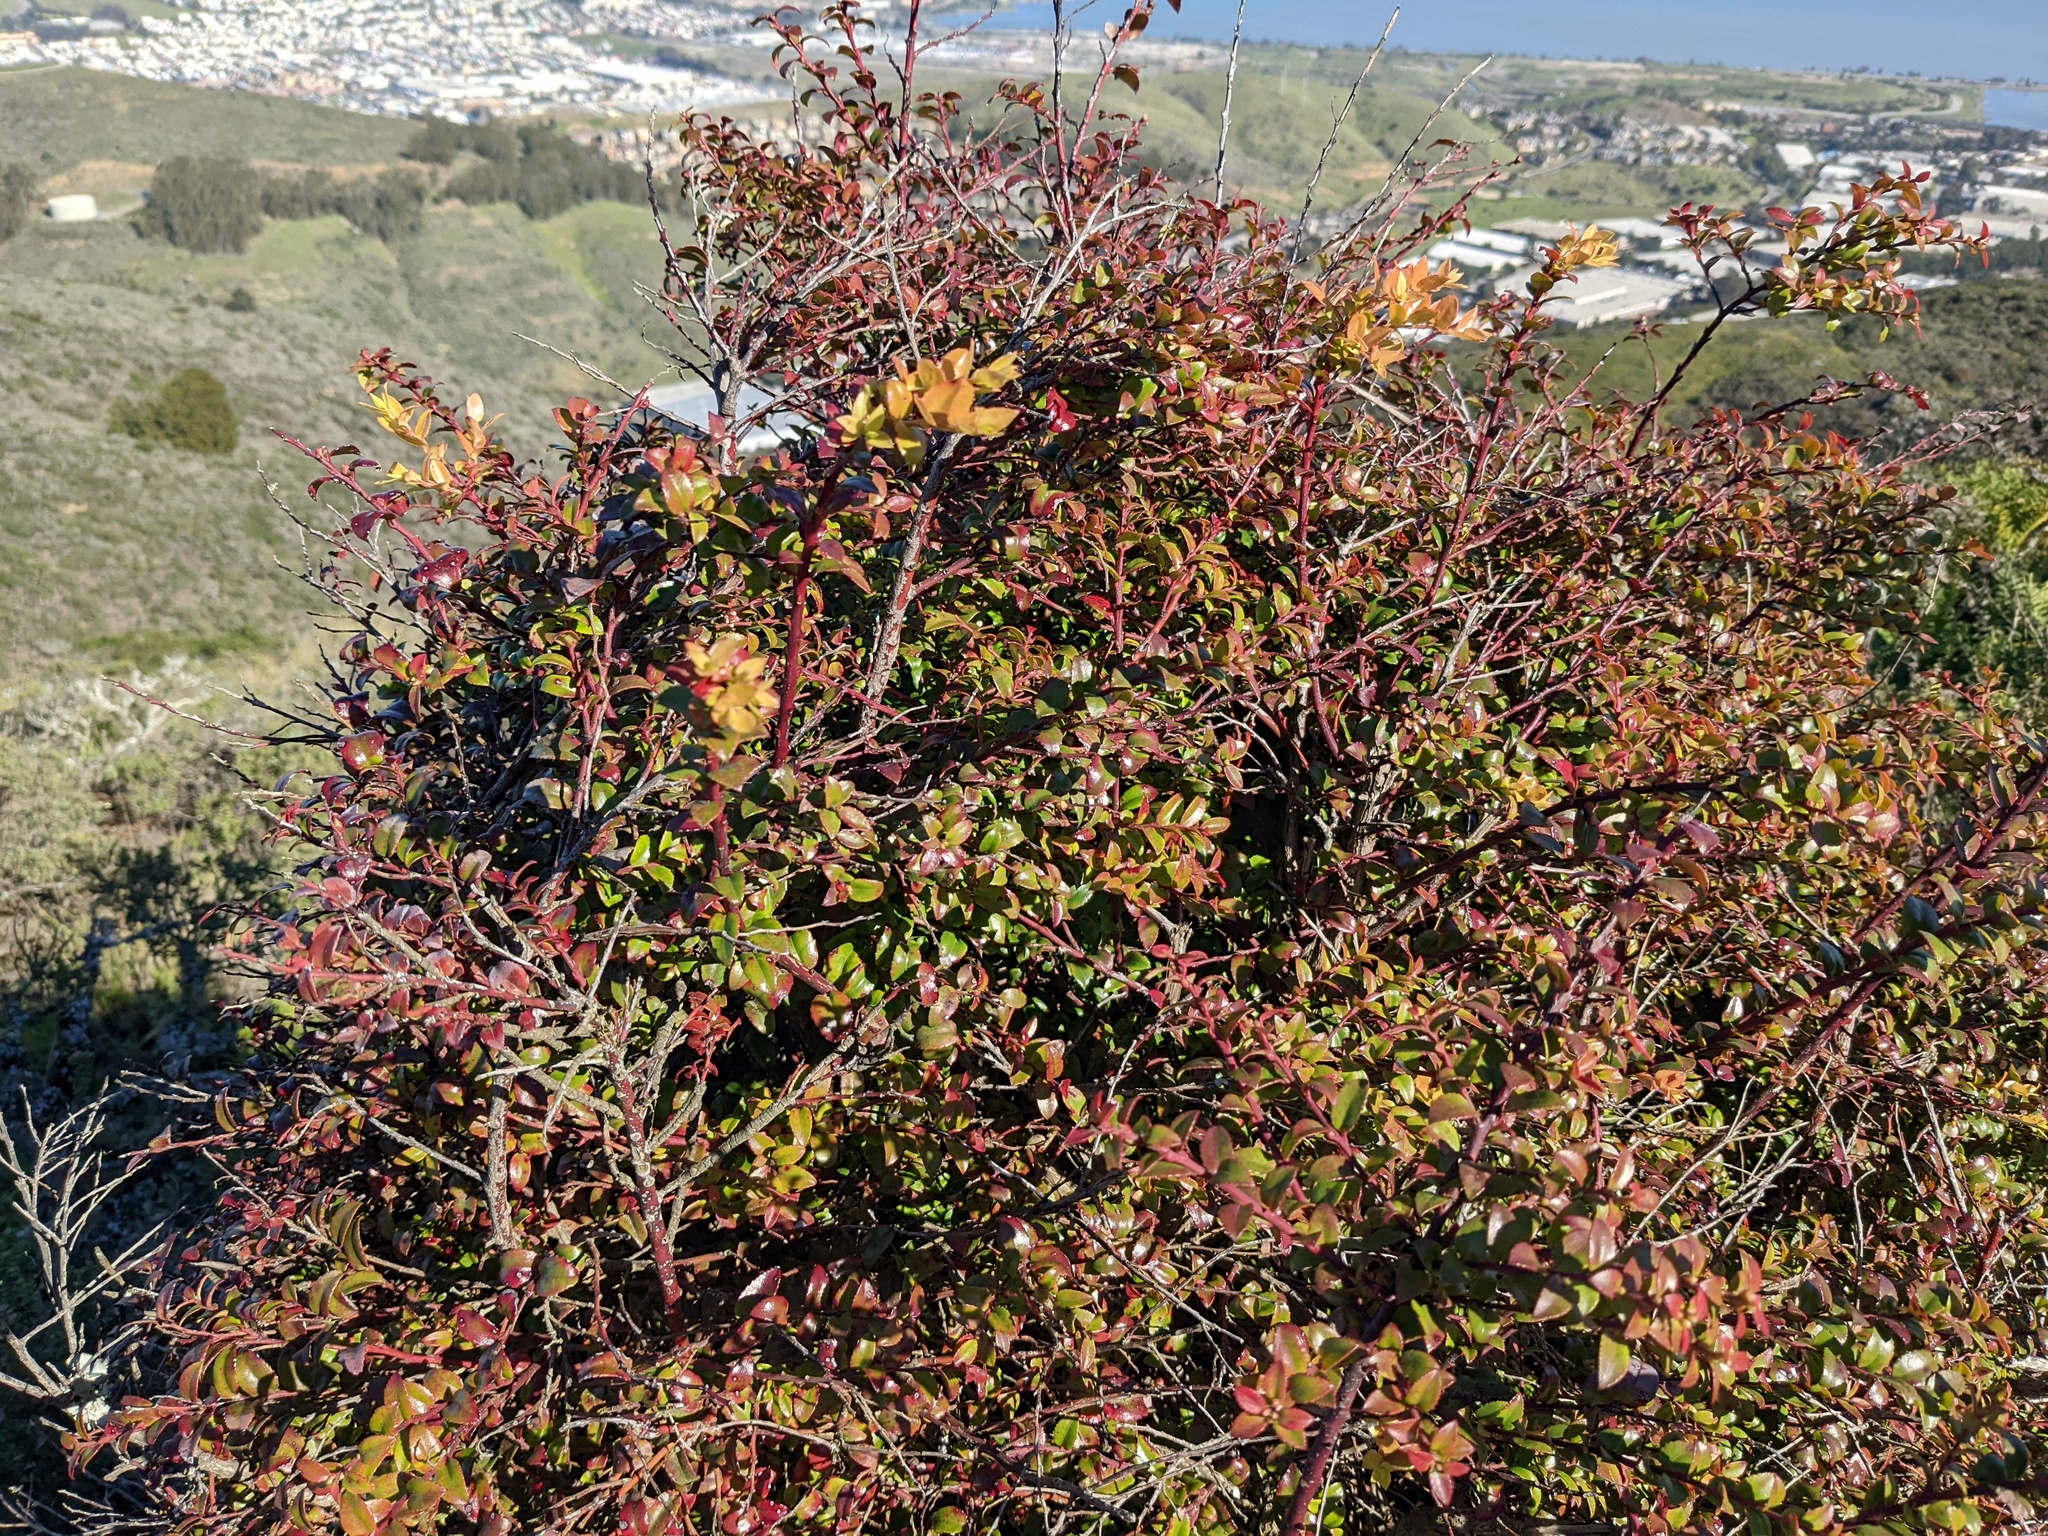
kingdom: Plantae
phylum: Tracheophyta
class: Magnoliopsida
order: Ericales
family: Ericaceae
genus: Vaccinium
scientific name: Vaccinium ovatum
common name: California-huckleberry
